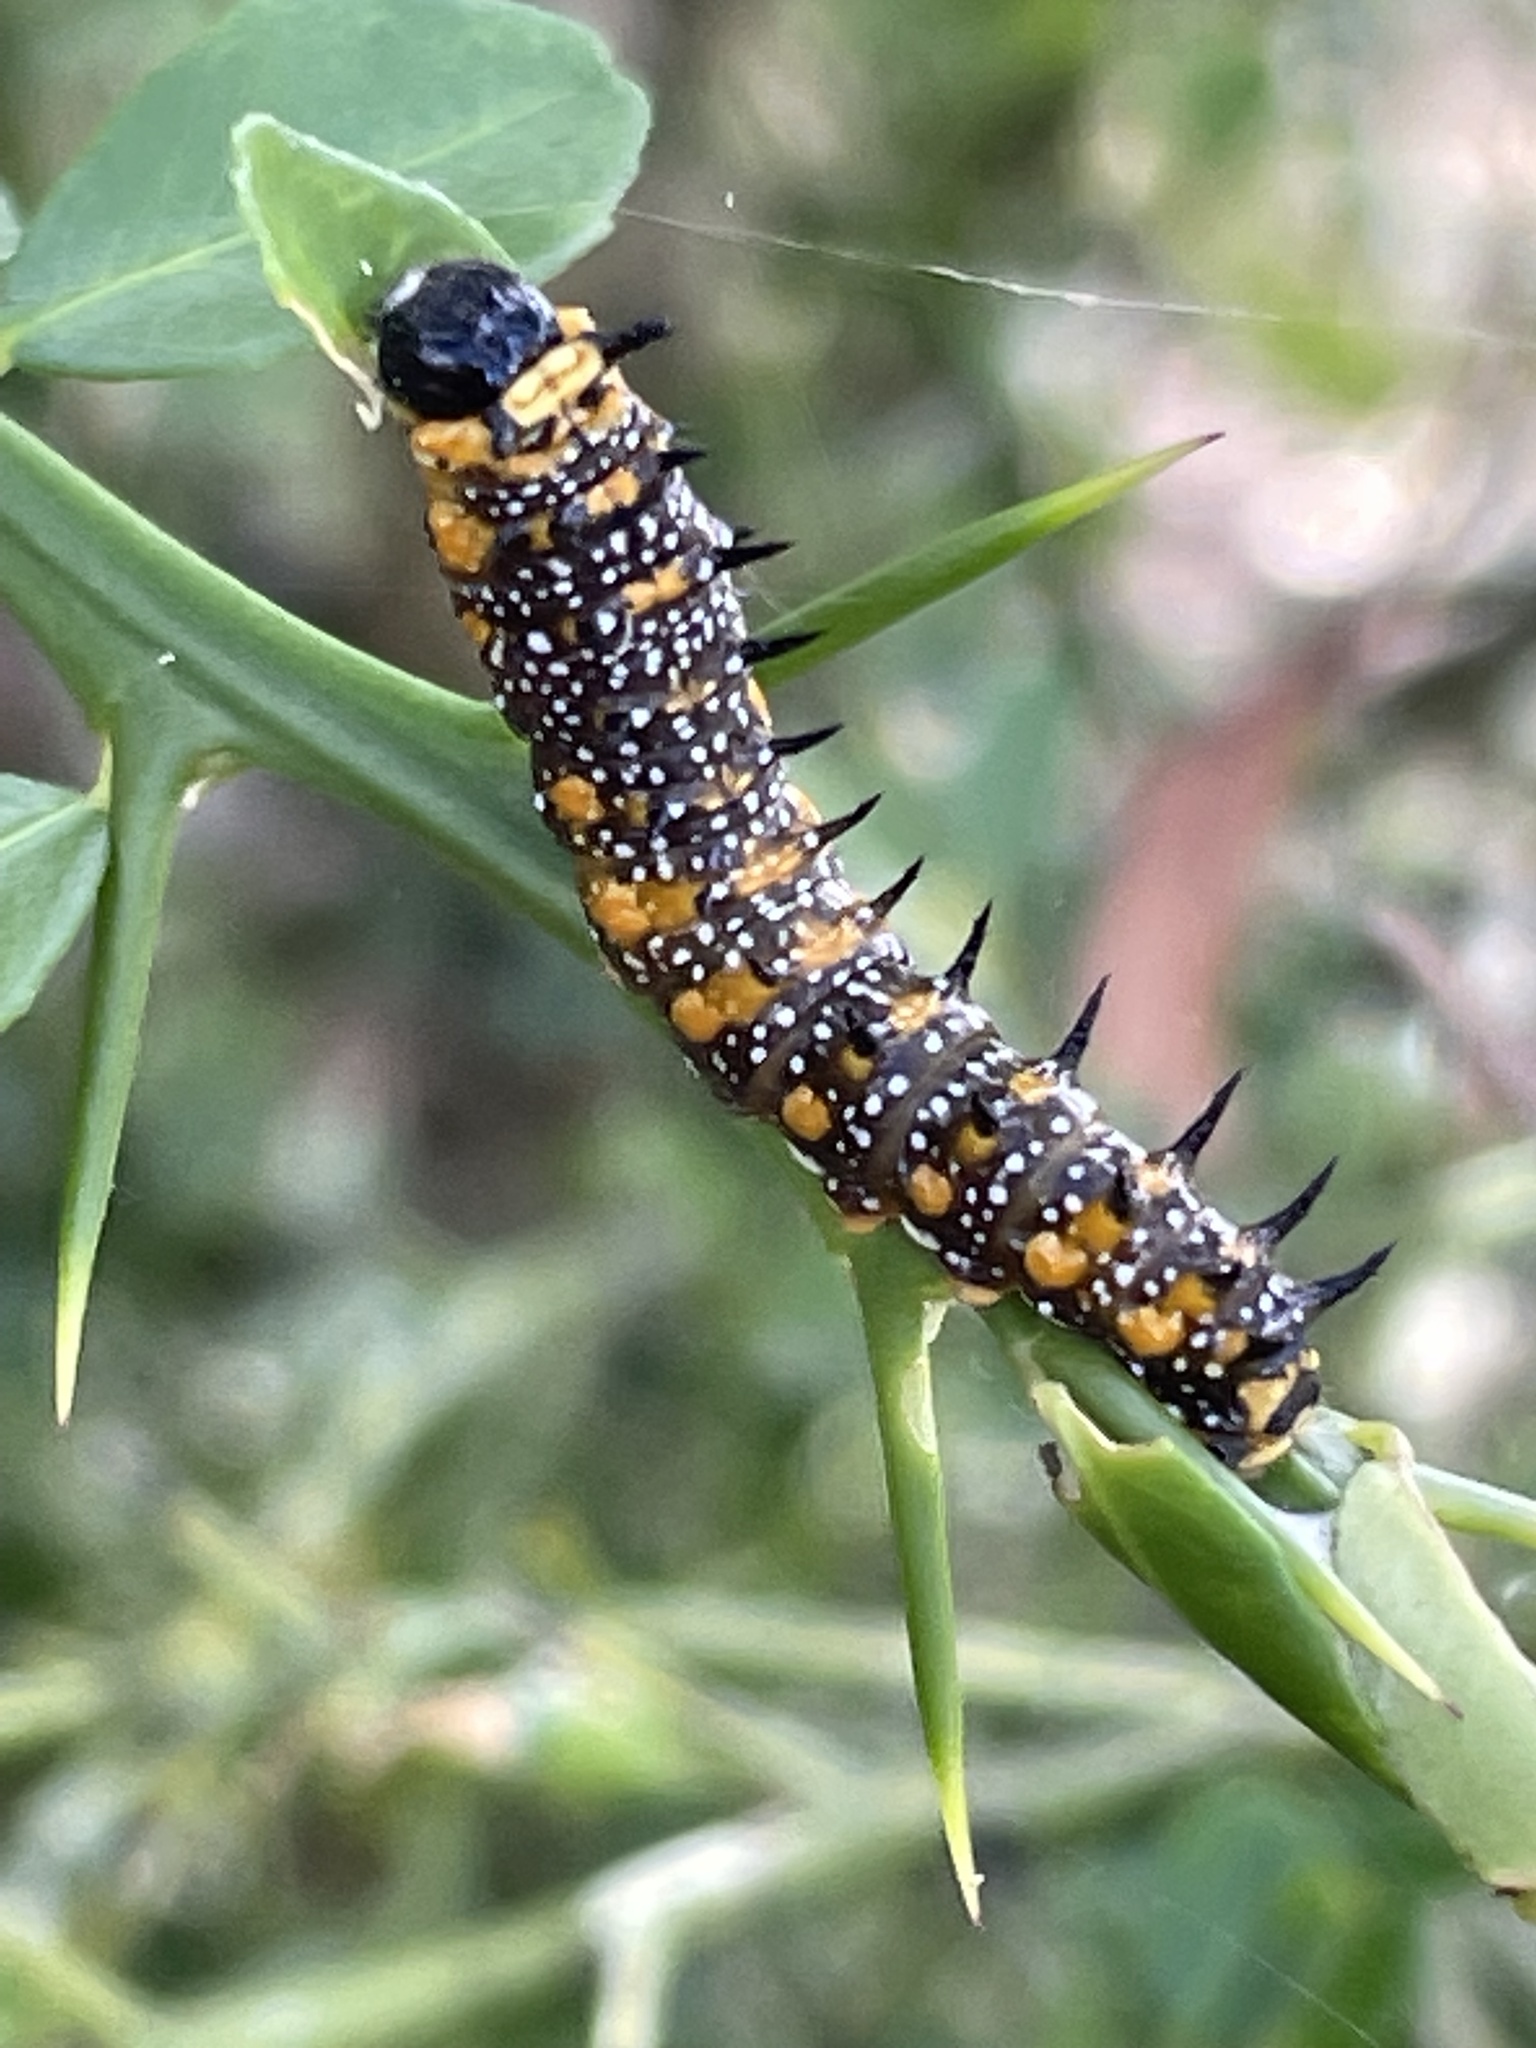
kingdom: Animalia
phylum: Arthropoda
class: Insecta
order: Lepidoptera
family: Papilionidae
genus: Papilio
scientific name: Papilio anactus
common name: Dingy swallowtail
